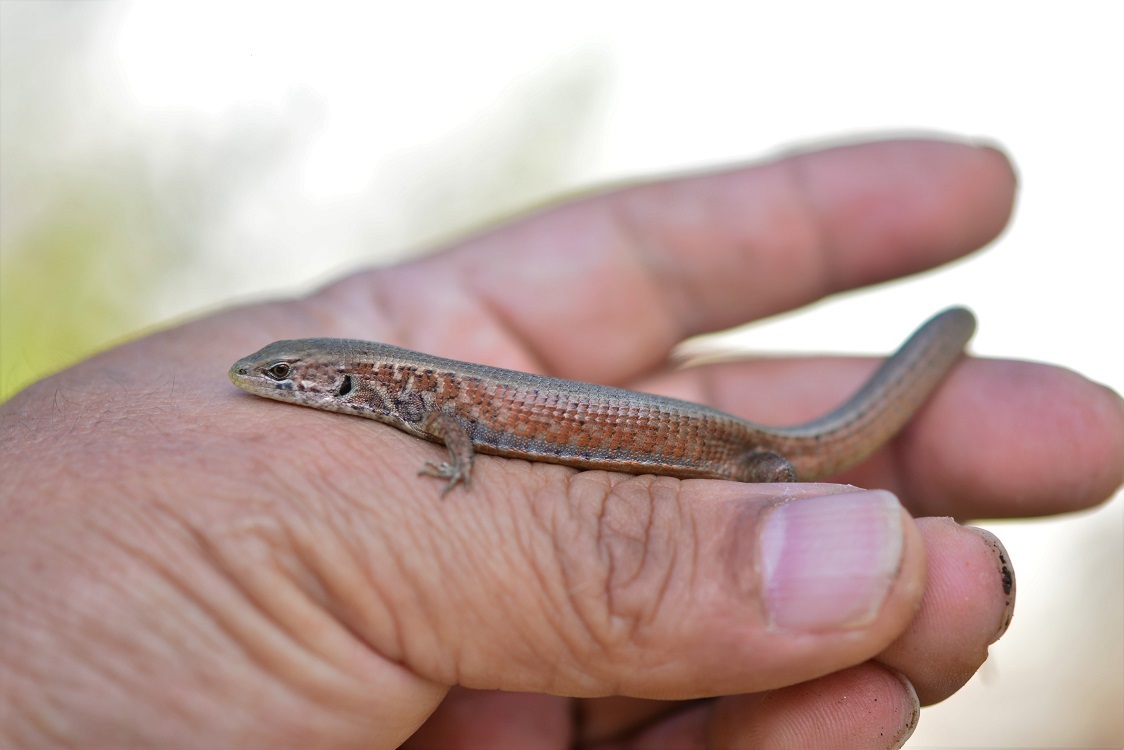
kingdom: Animalia
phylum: Chordata
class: Squamata
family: Anguidae
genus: Abronia
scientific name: Abronia moreletii
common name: Morelet's alligator lizard
